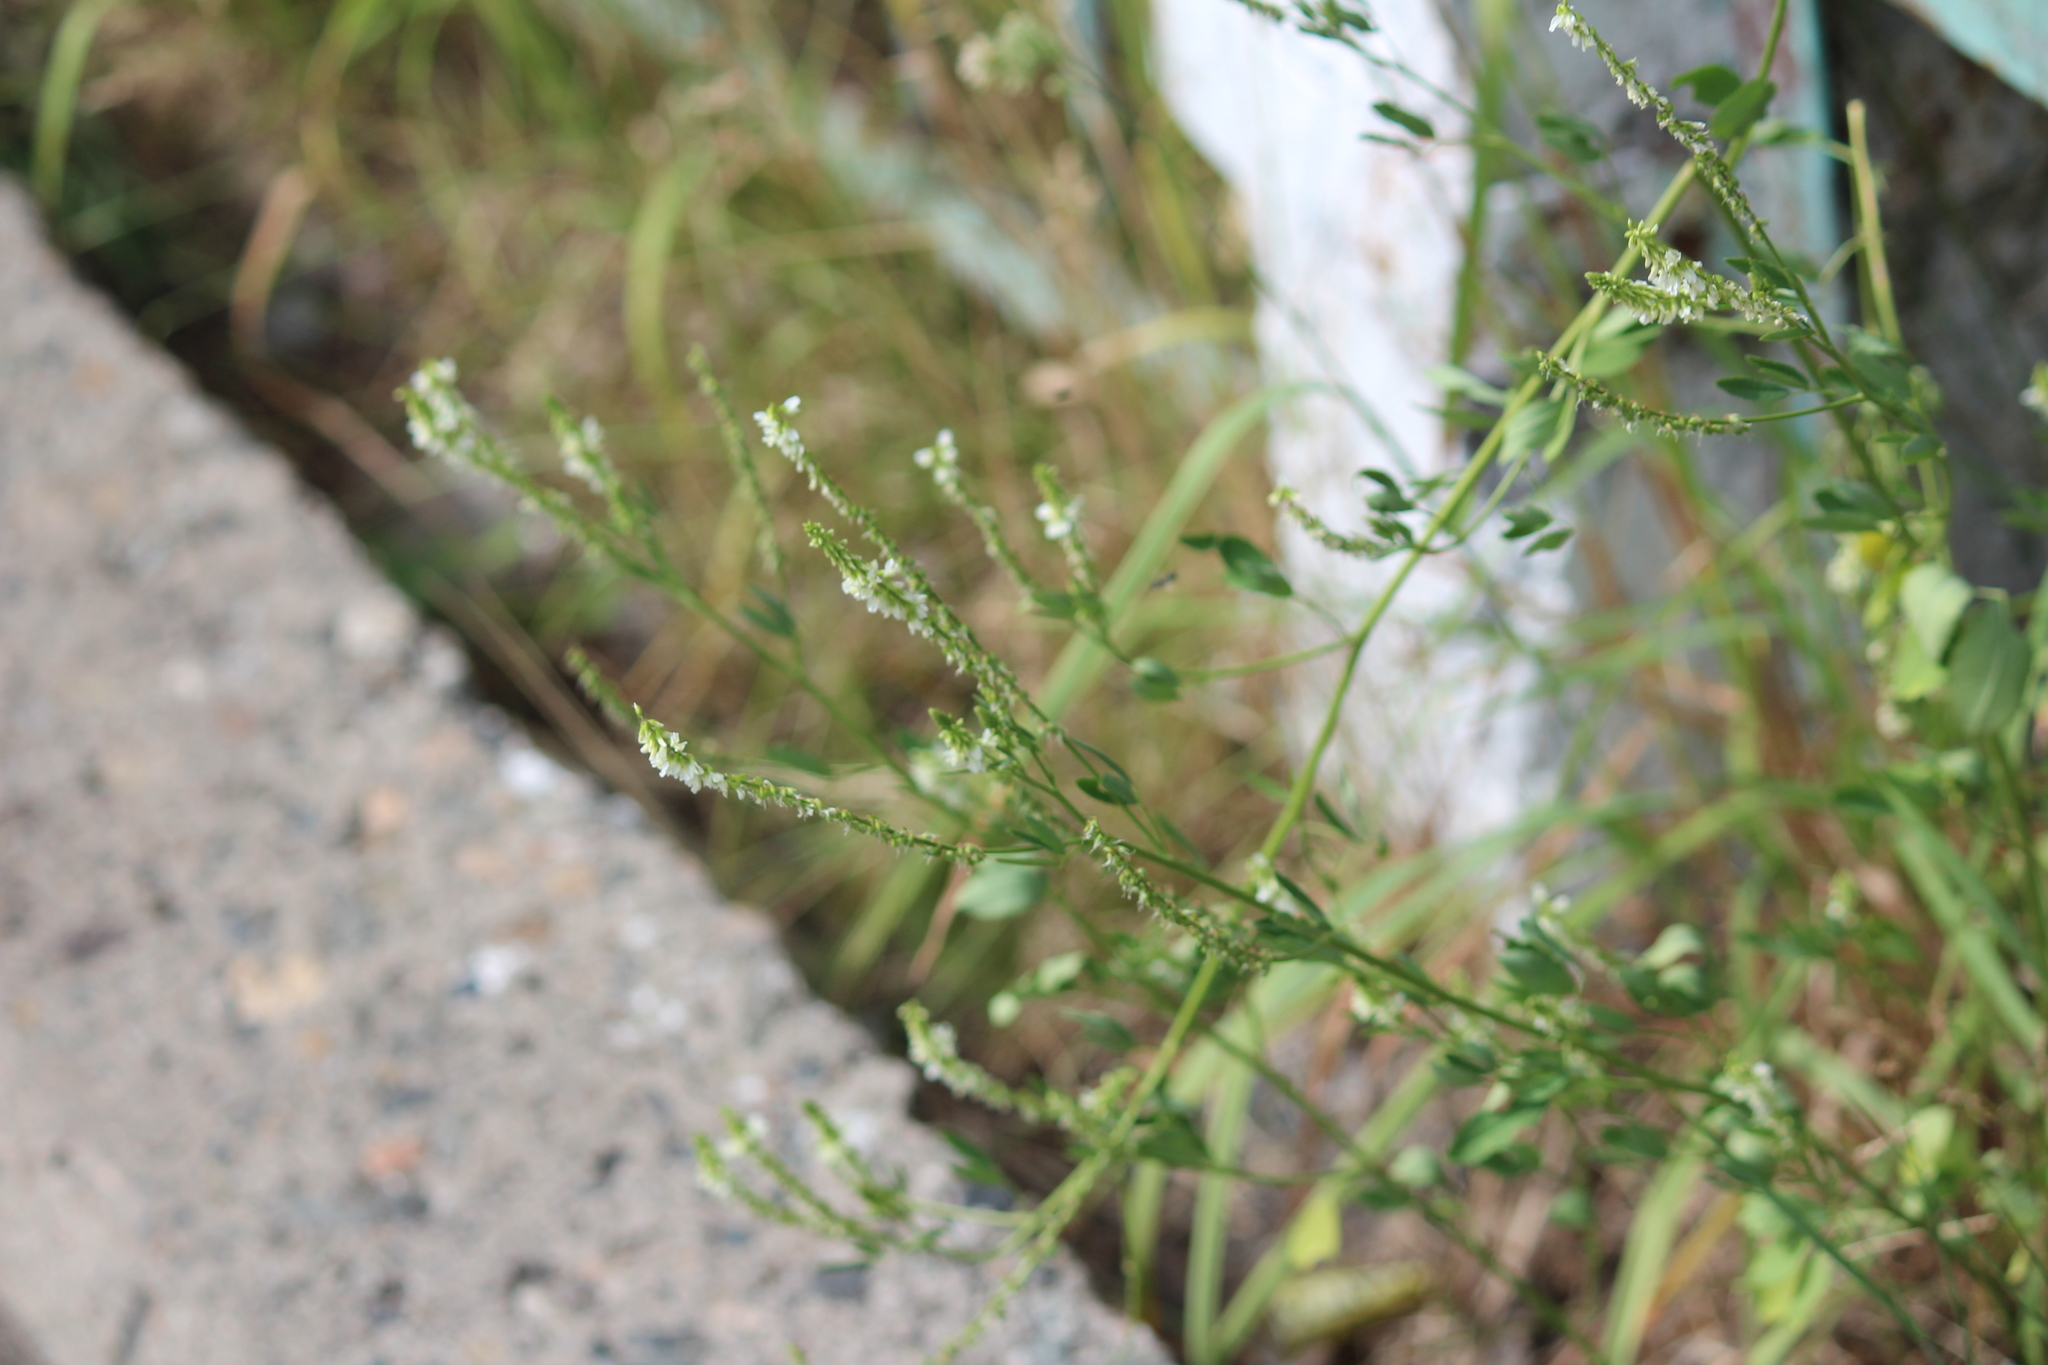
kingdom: Plantae
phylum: Tracheophyta
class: Magnoliopsida
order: Fabales
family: Fabaceae
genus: Melilotus
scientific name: Melilotus albus
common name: White melilot
